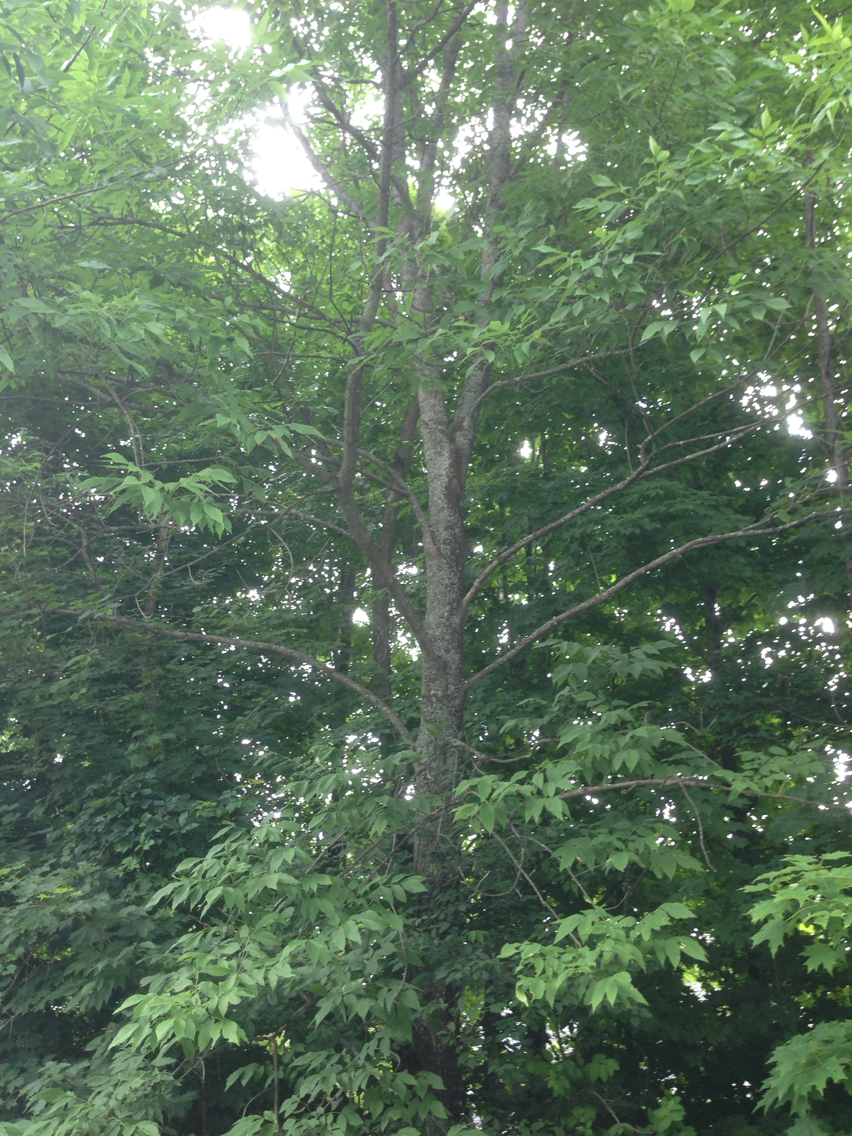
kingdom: Plantae
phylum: Tracheophyta
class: Magnoliopsida
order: Lamiales
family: Oleaceae
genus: Fraxinus
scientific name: Fraxinus americana
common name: White ash
